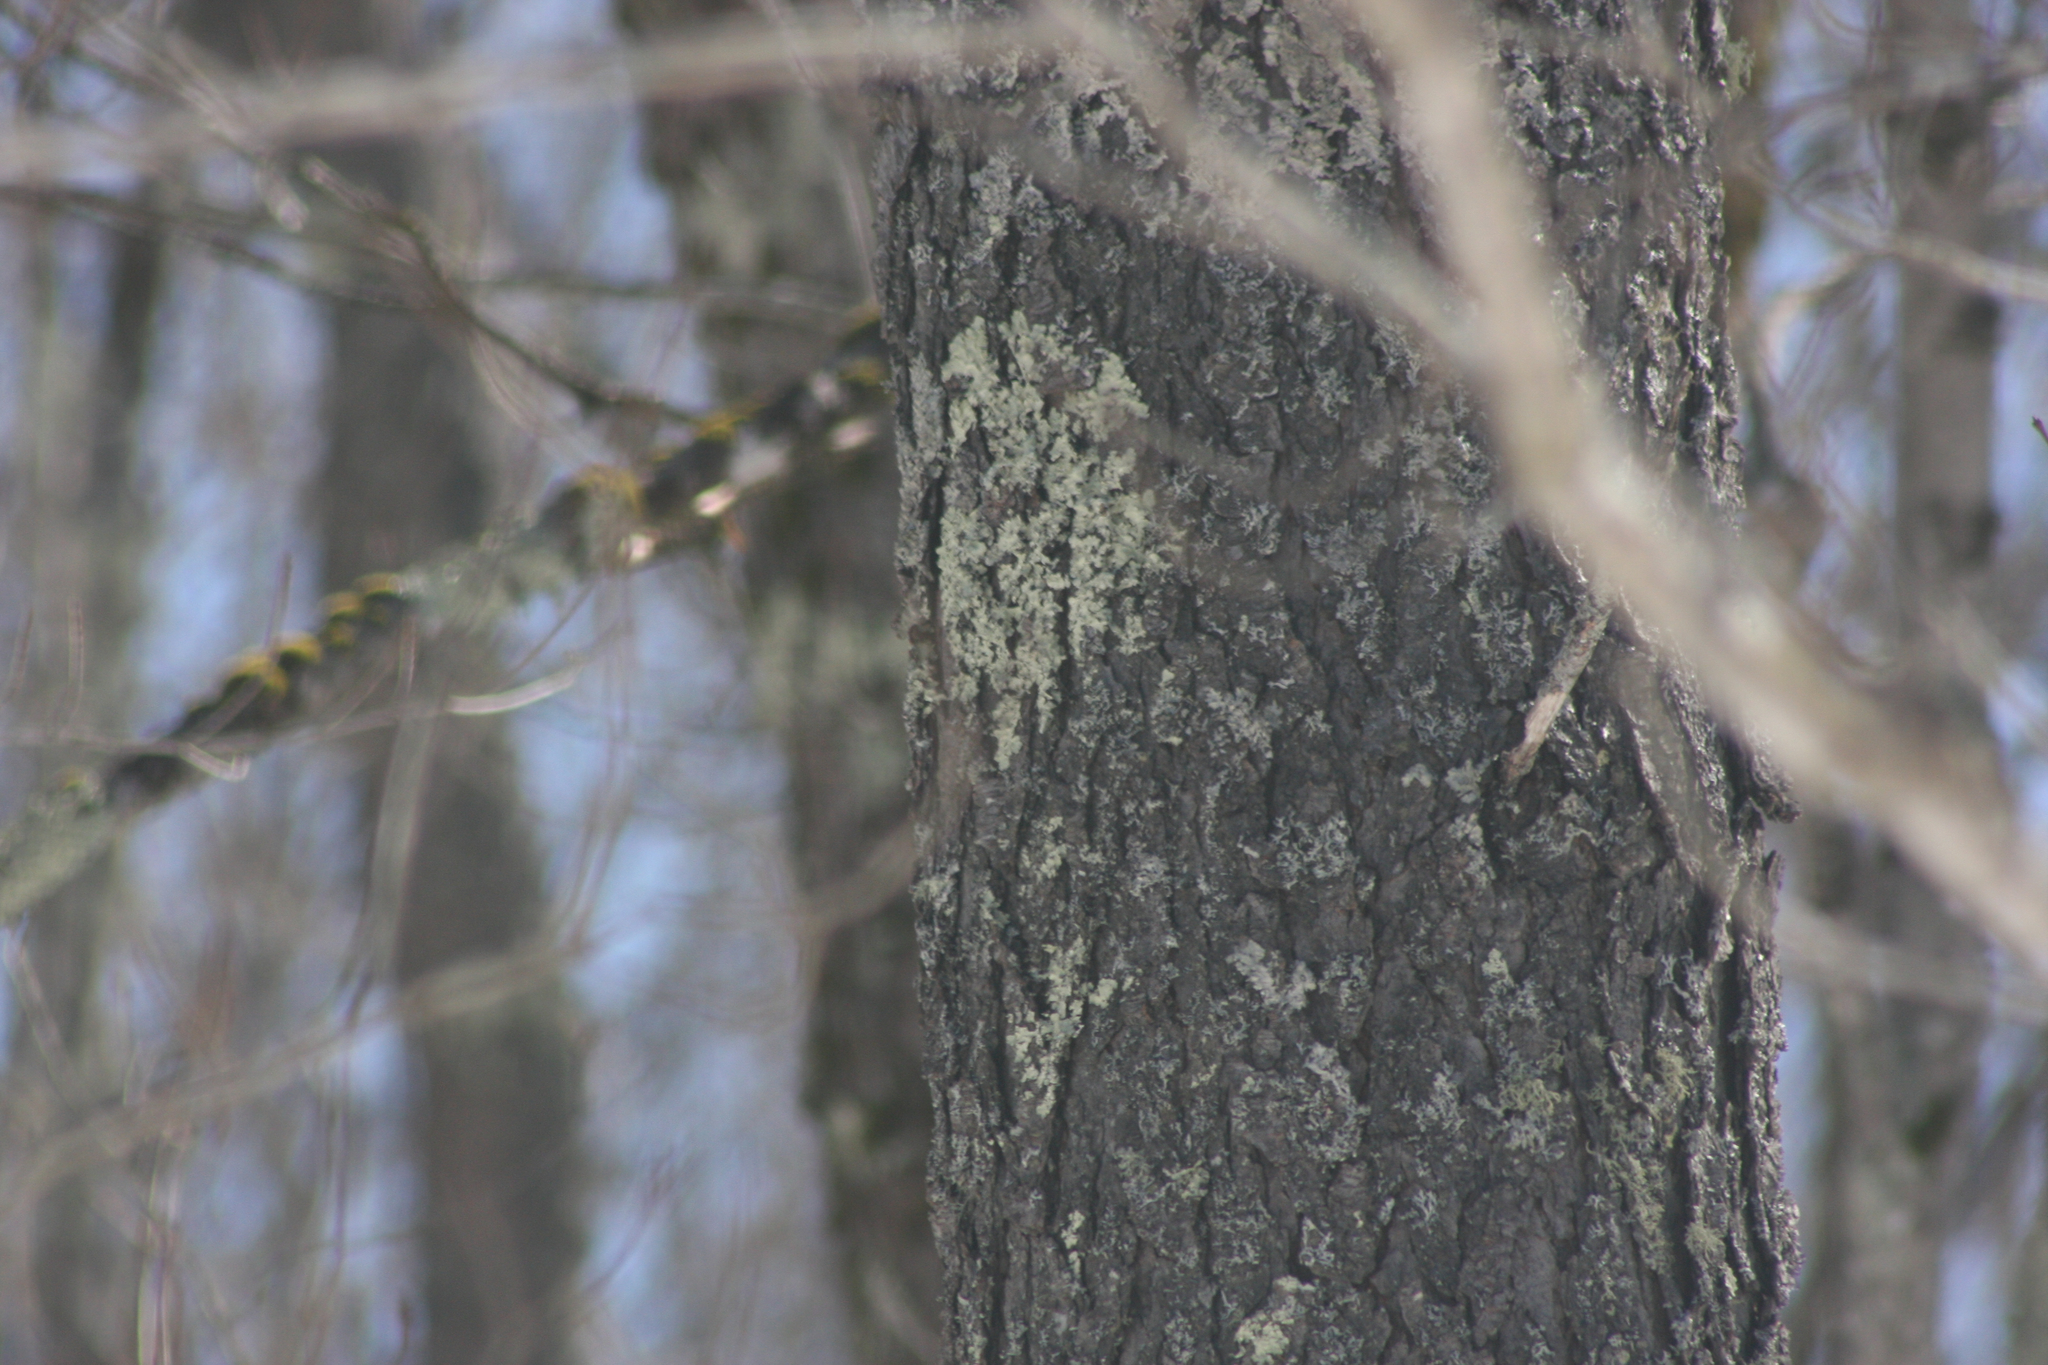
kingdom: Fungi
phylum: Ascomycota
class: Lecanoromycetes
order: Lecanorales
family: Parmeliaceae
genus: Flavoparmelia
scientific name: Flavoparmelia caperata
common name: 40-mile per hour lichen
